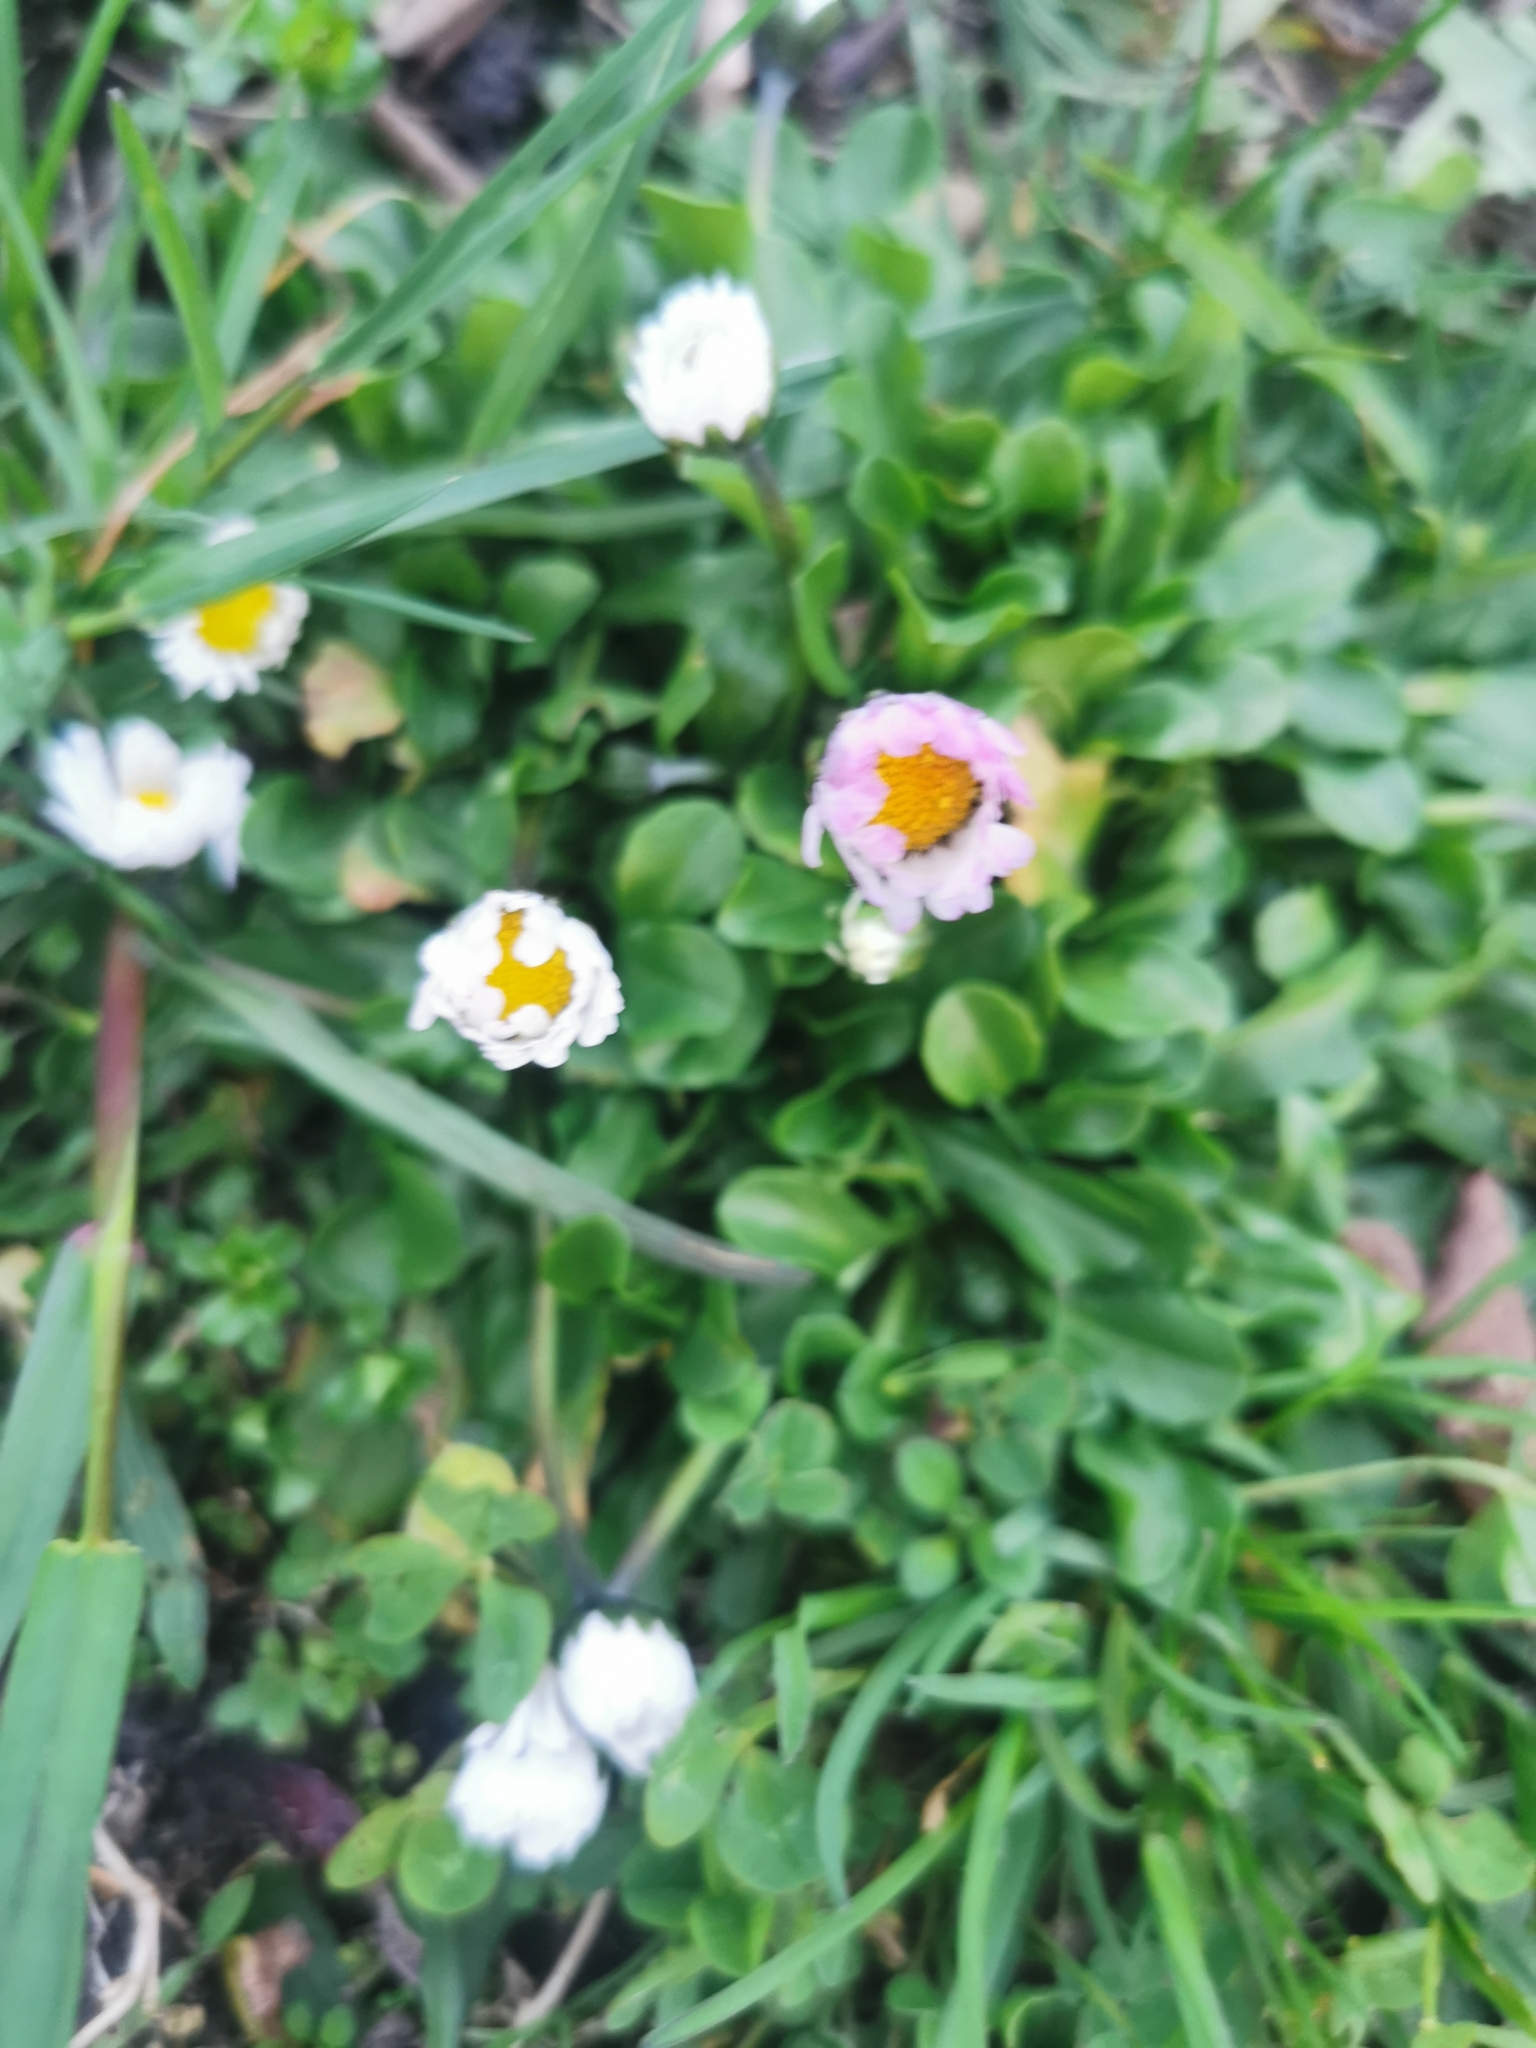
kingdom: Plantae
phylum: Tracheophyta
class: Magnoliopsida
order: Asterales
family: Asteraceae
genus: Bellis
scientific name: Bellis perennis
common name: Lawndaisy
